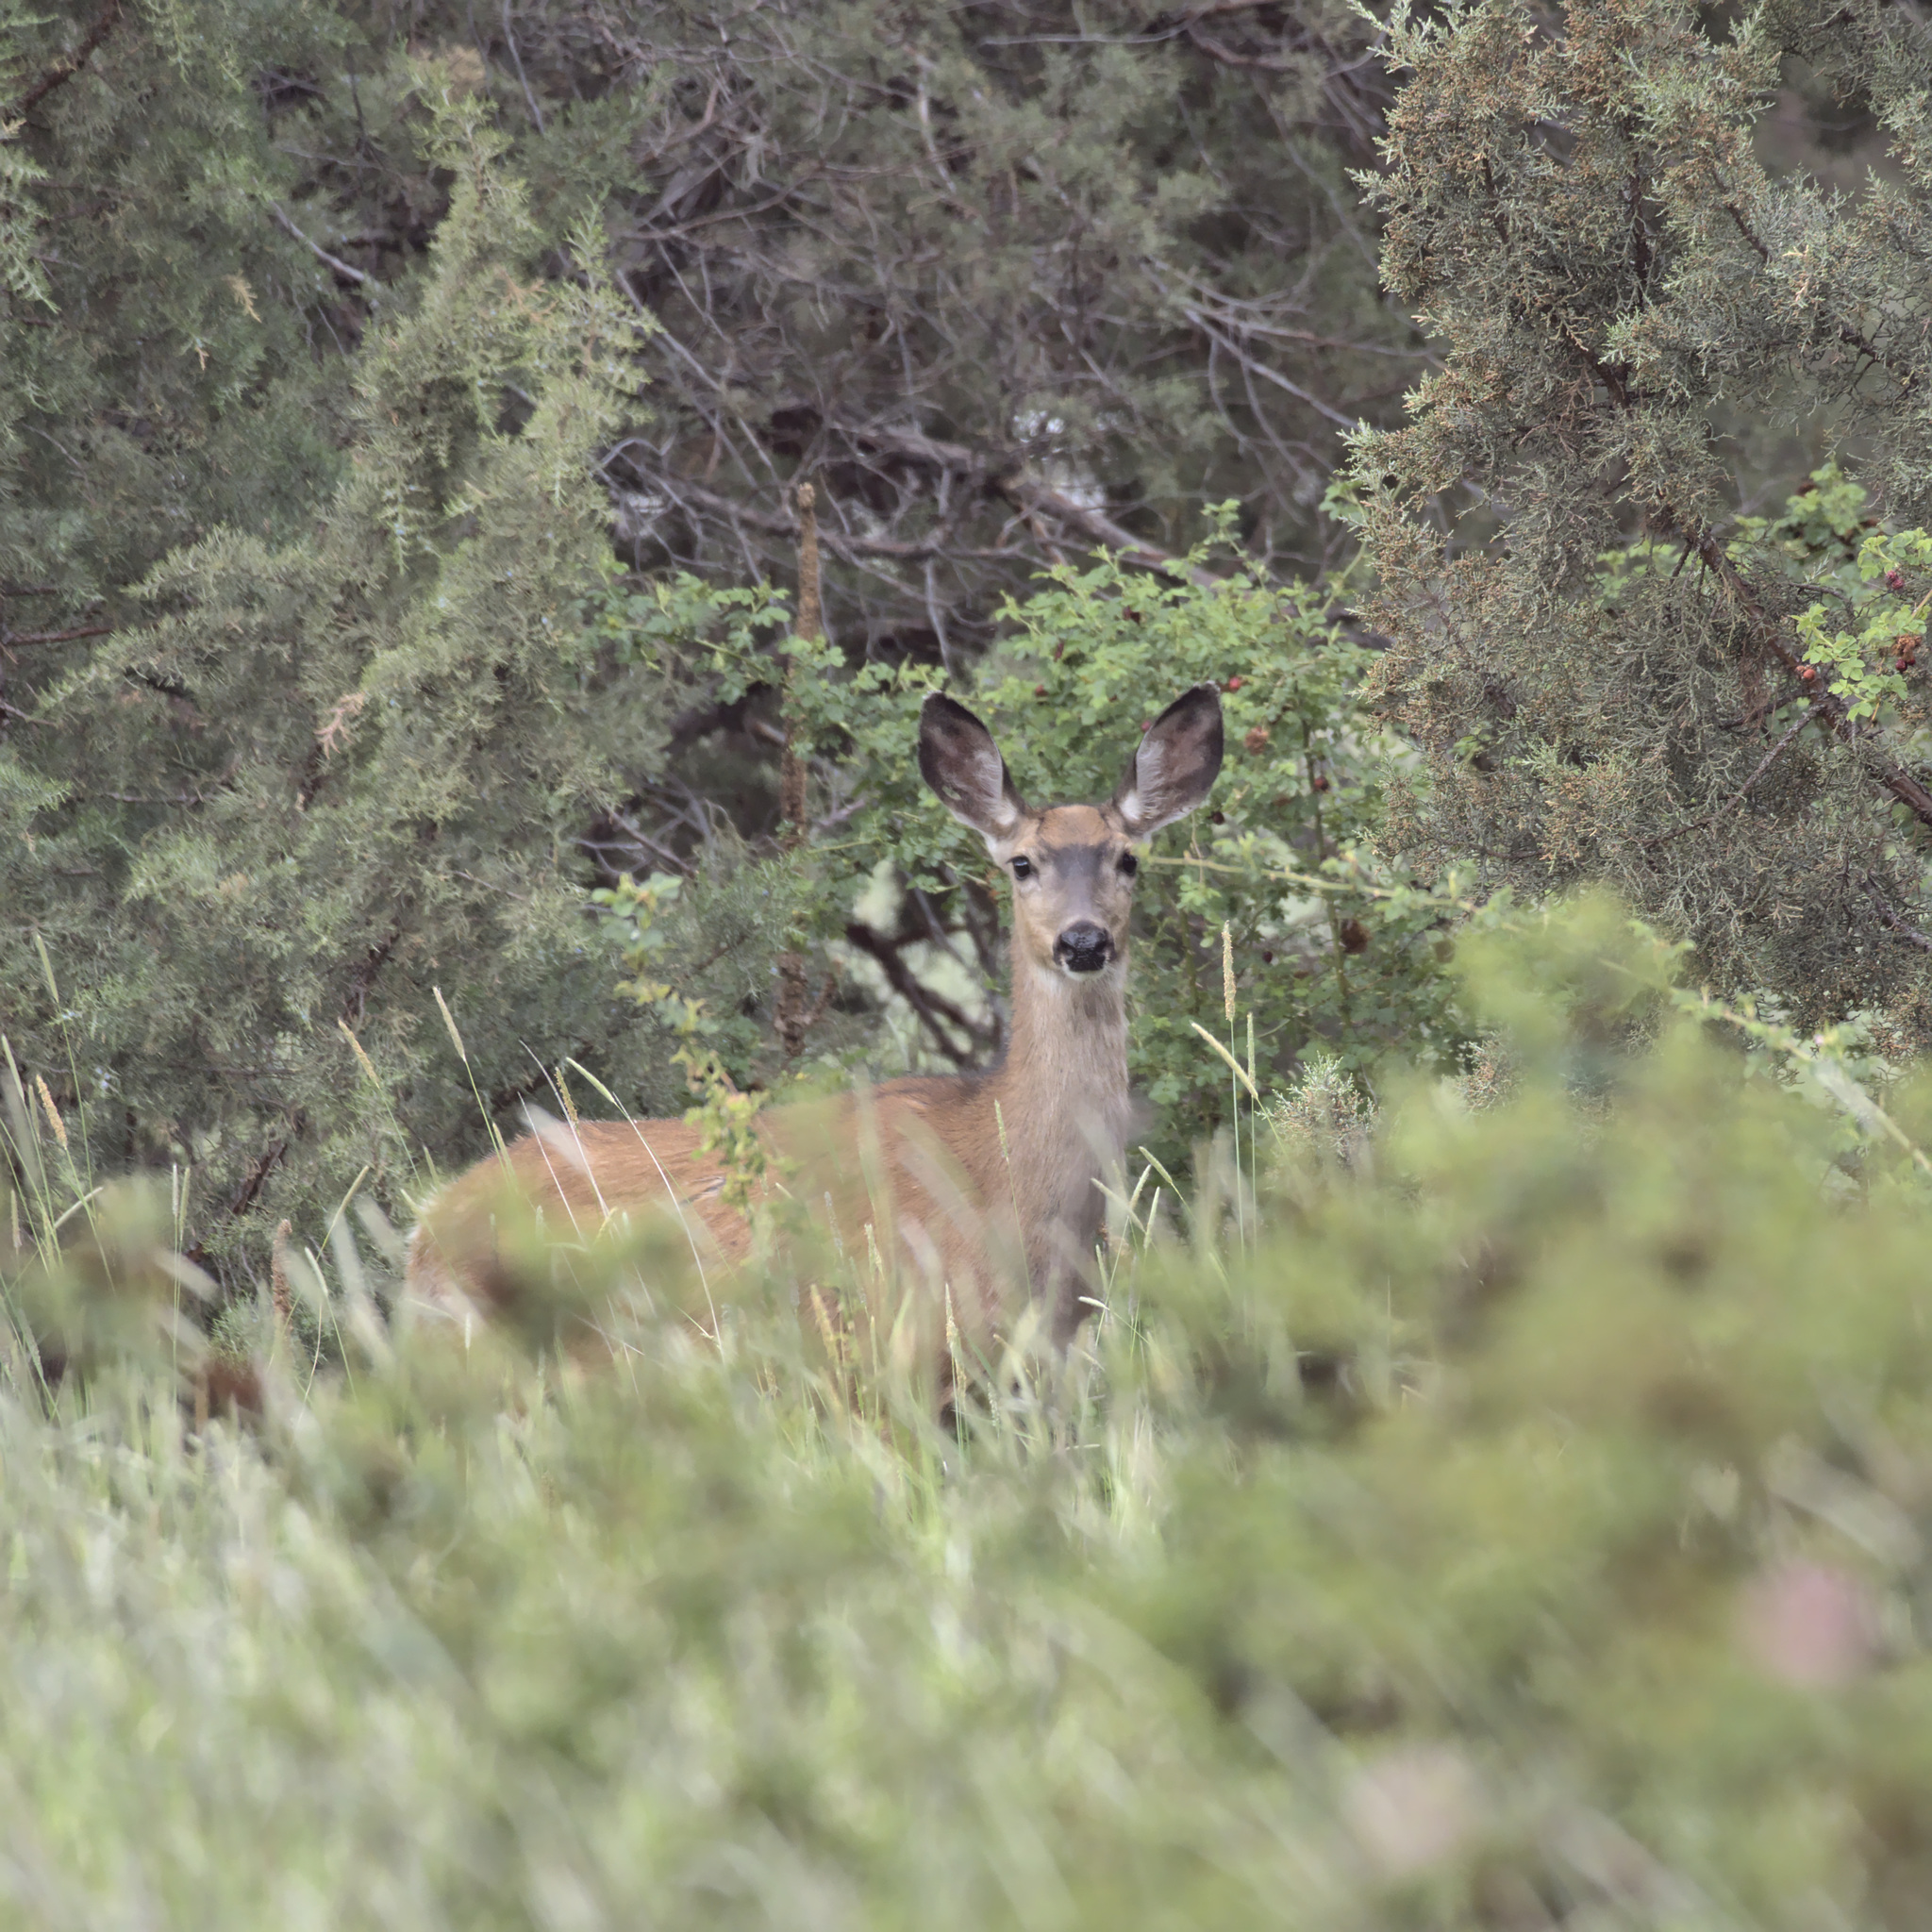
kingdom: Animalia
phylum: Chordata
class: Mammalia
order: Artiodactyla
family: Cervidae
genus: Odocoileus
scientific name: Odocoileus hemionus
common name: Mule deer
